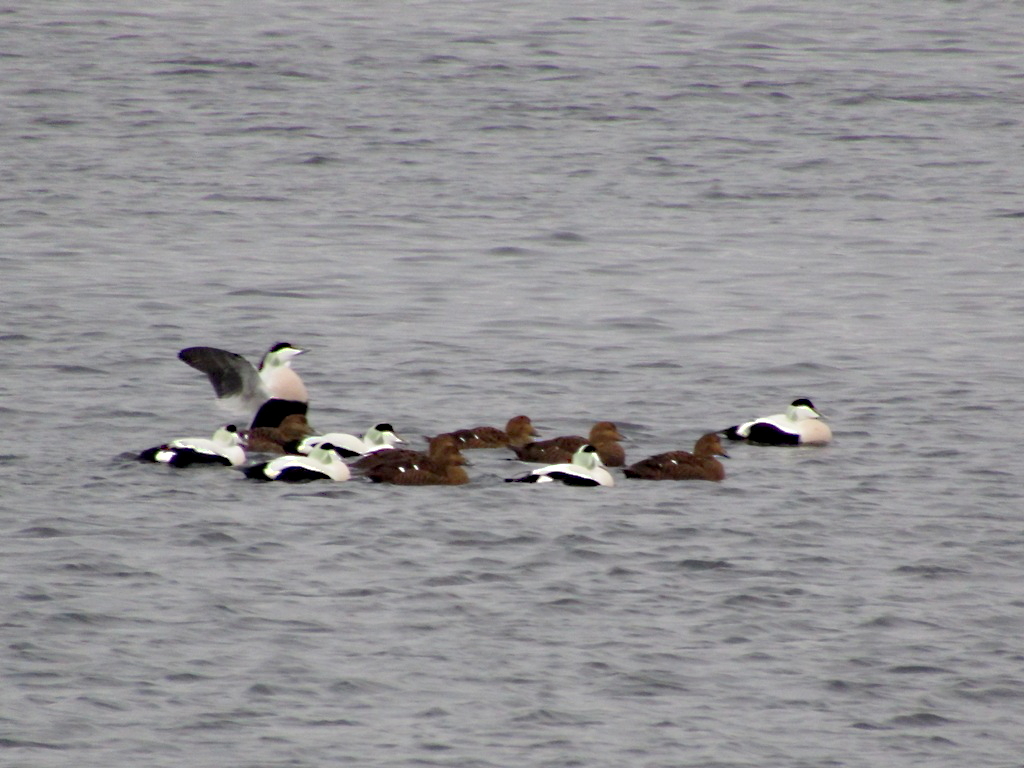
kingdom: Animalia
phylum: Chordata
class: Aves
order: Anseriformes
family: Anatidae
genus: Somateria
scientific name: Somateria mollissima
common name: Common eider
